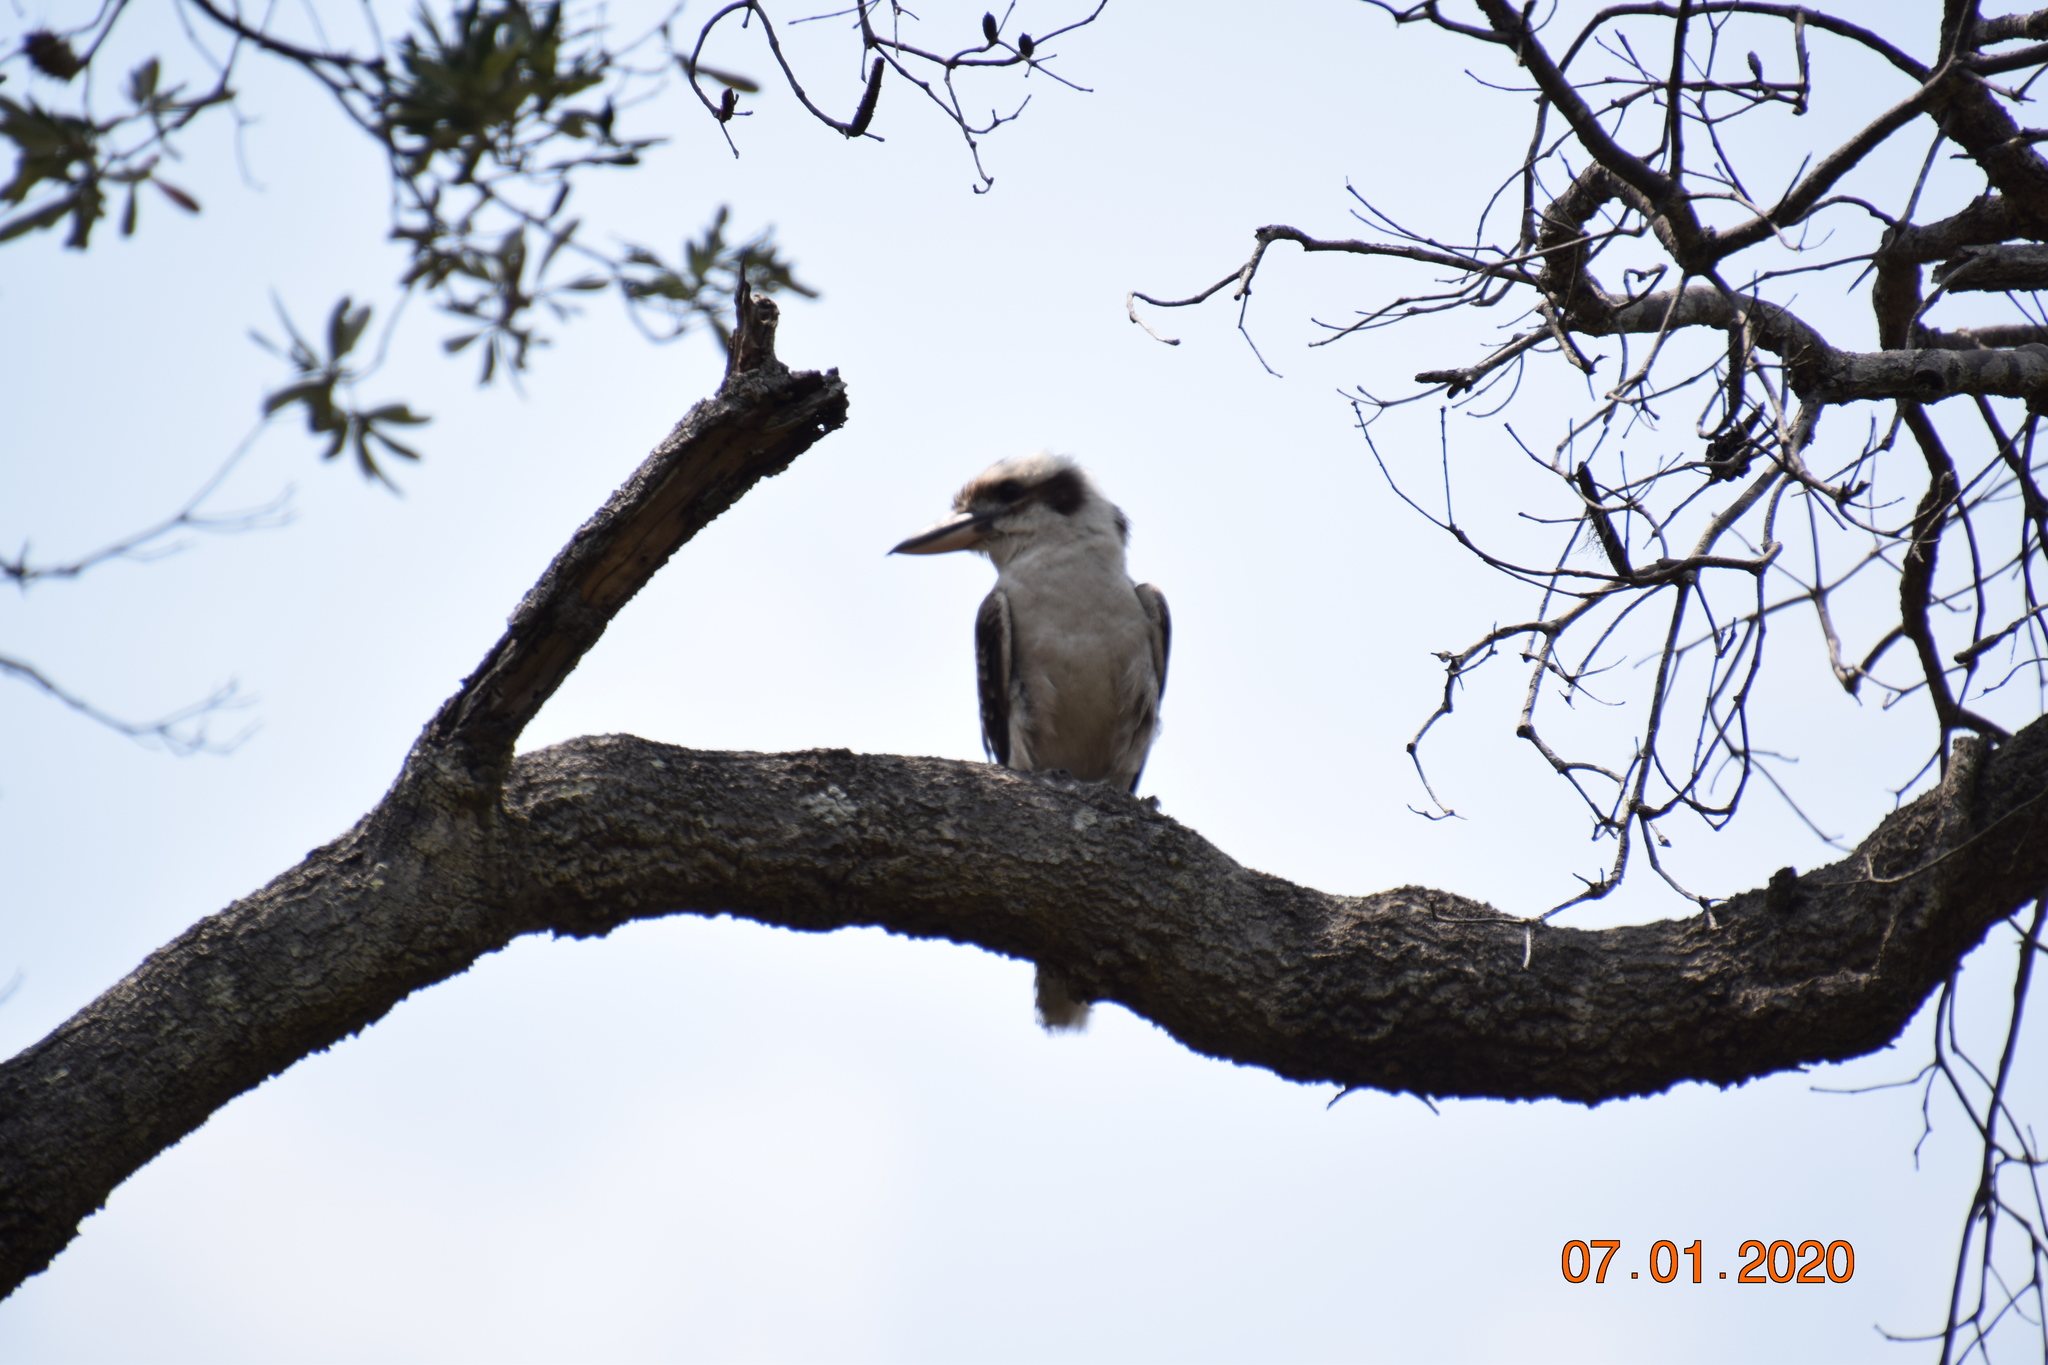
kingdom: Animalia
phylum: Chordata
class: Aves
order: Coraciiformes
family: Alcedinidae
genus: Dacelo
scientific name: Dacelo novaeguineae
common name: Laughing kookaburra
